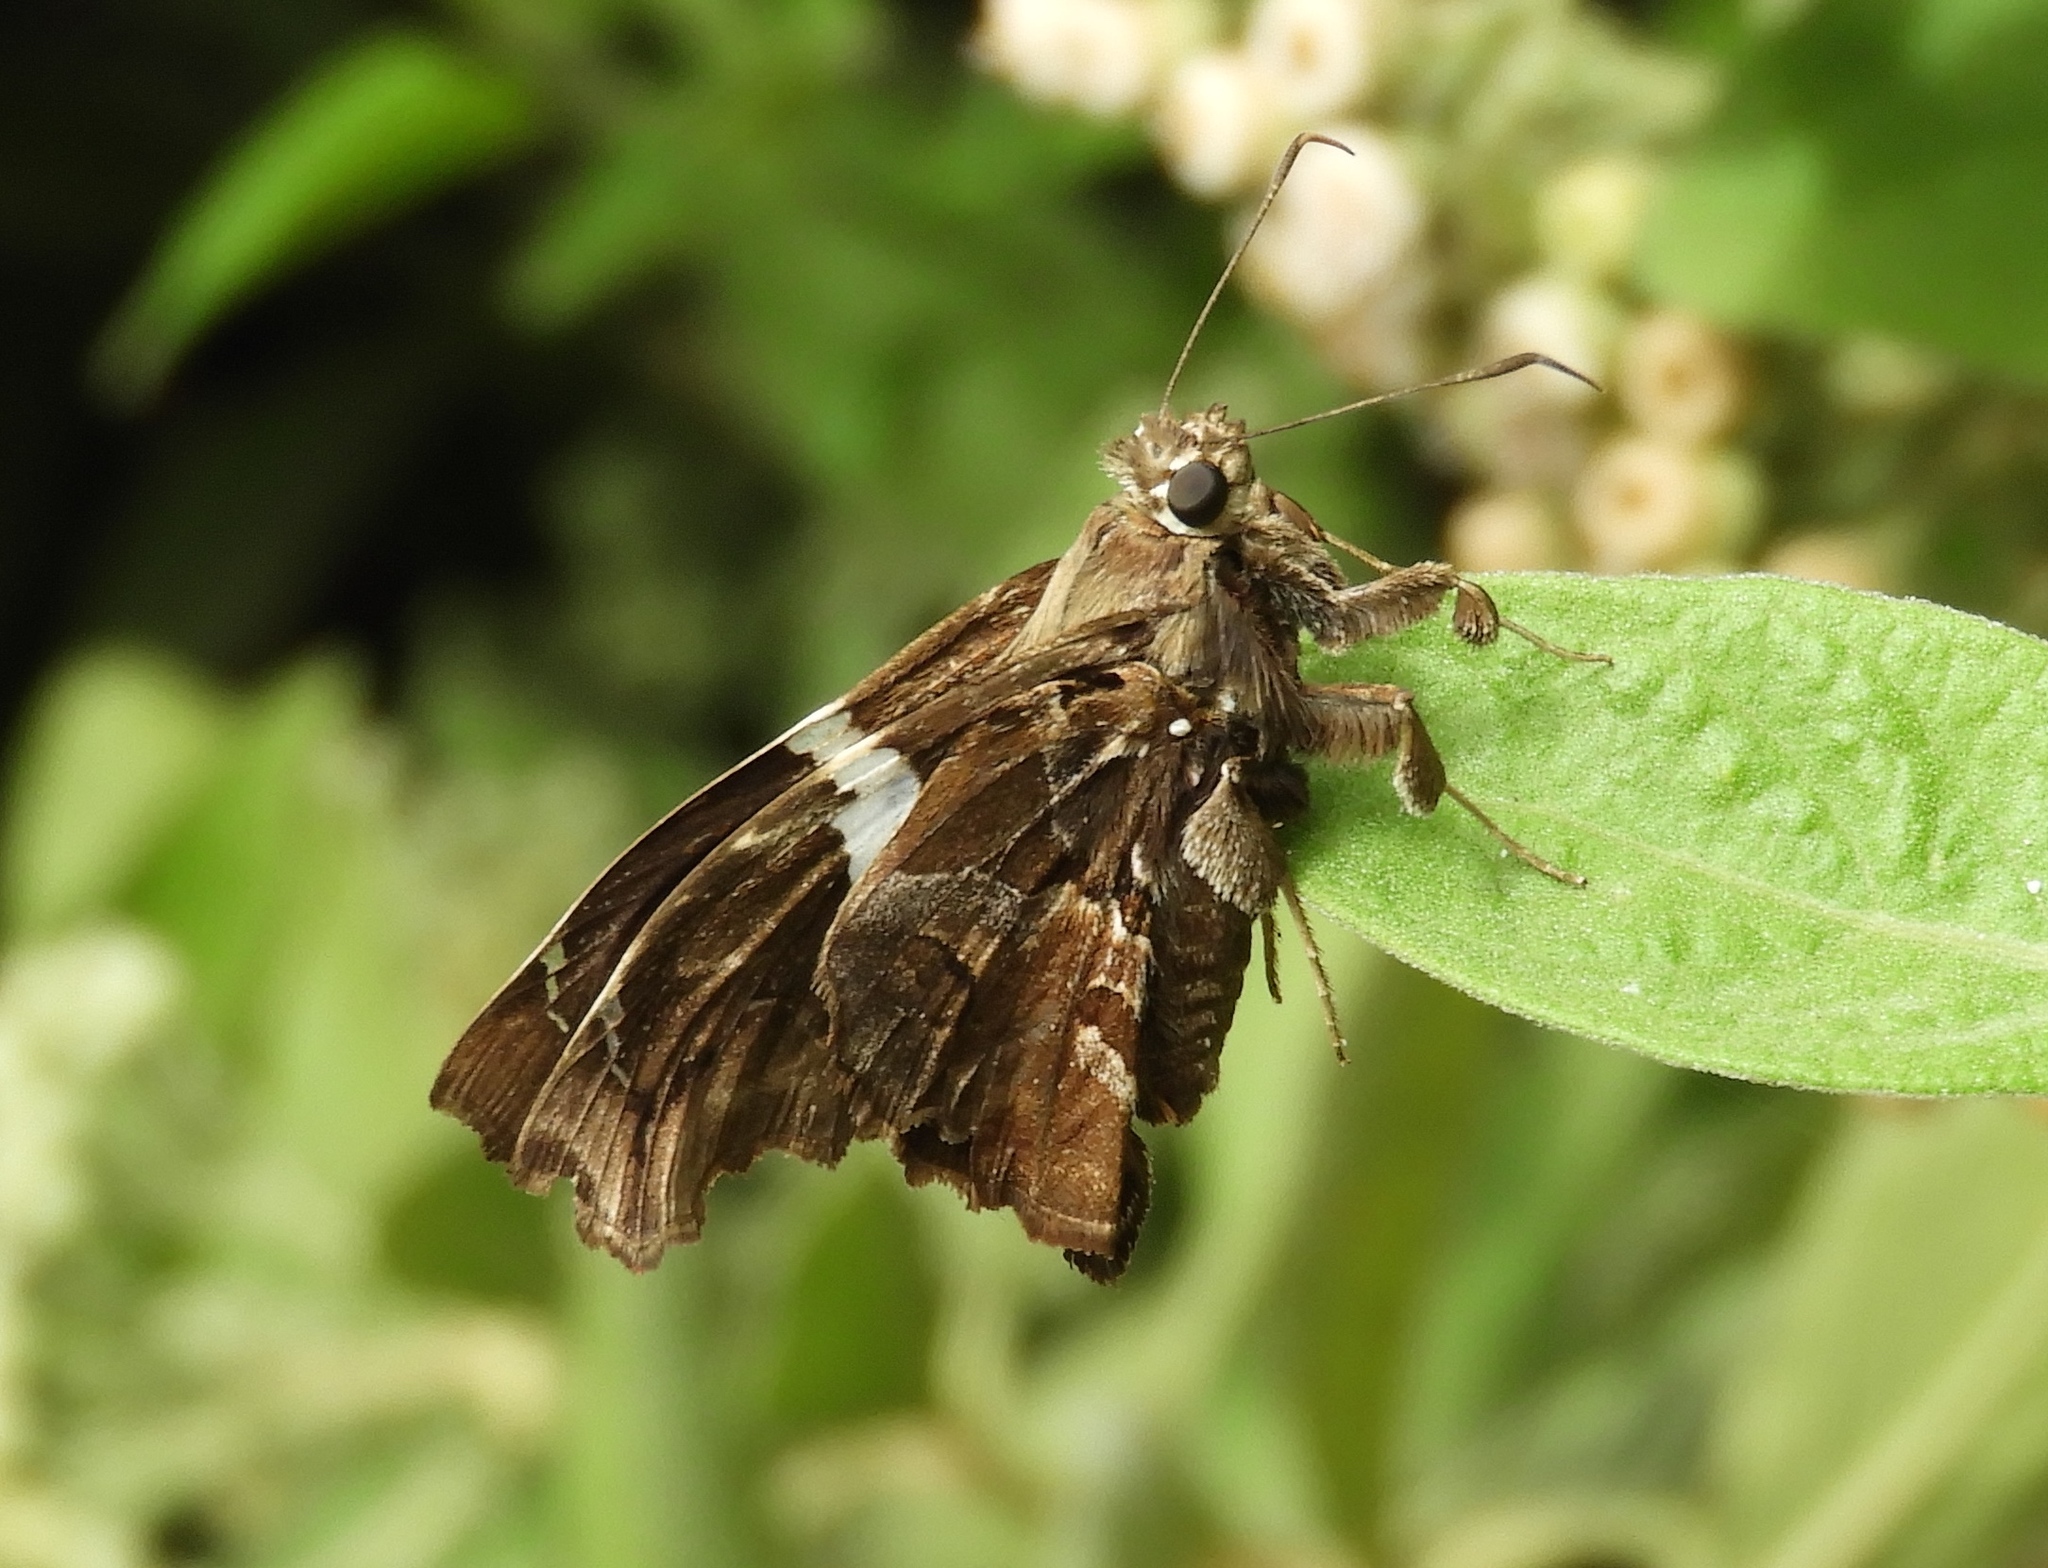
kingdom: Animalia
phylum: Arthropoda
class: Insecta
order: Lepidoptera
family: Hesperiidae
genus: Spathilepia
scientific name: Spathilepia clonius
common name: Falcate skipper
